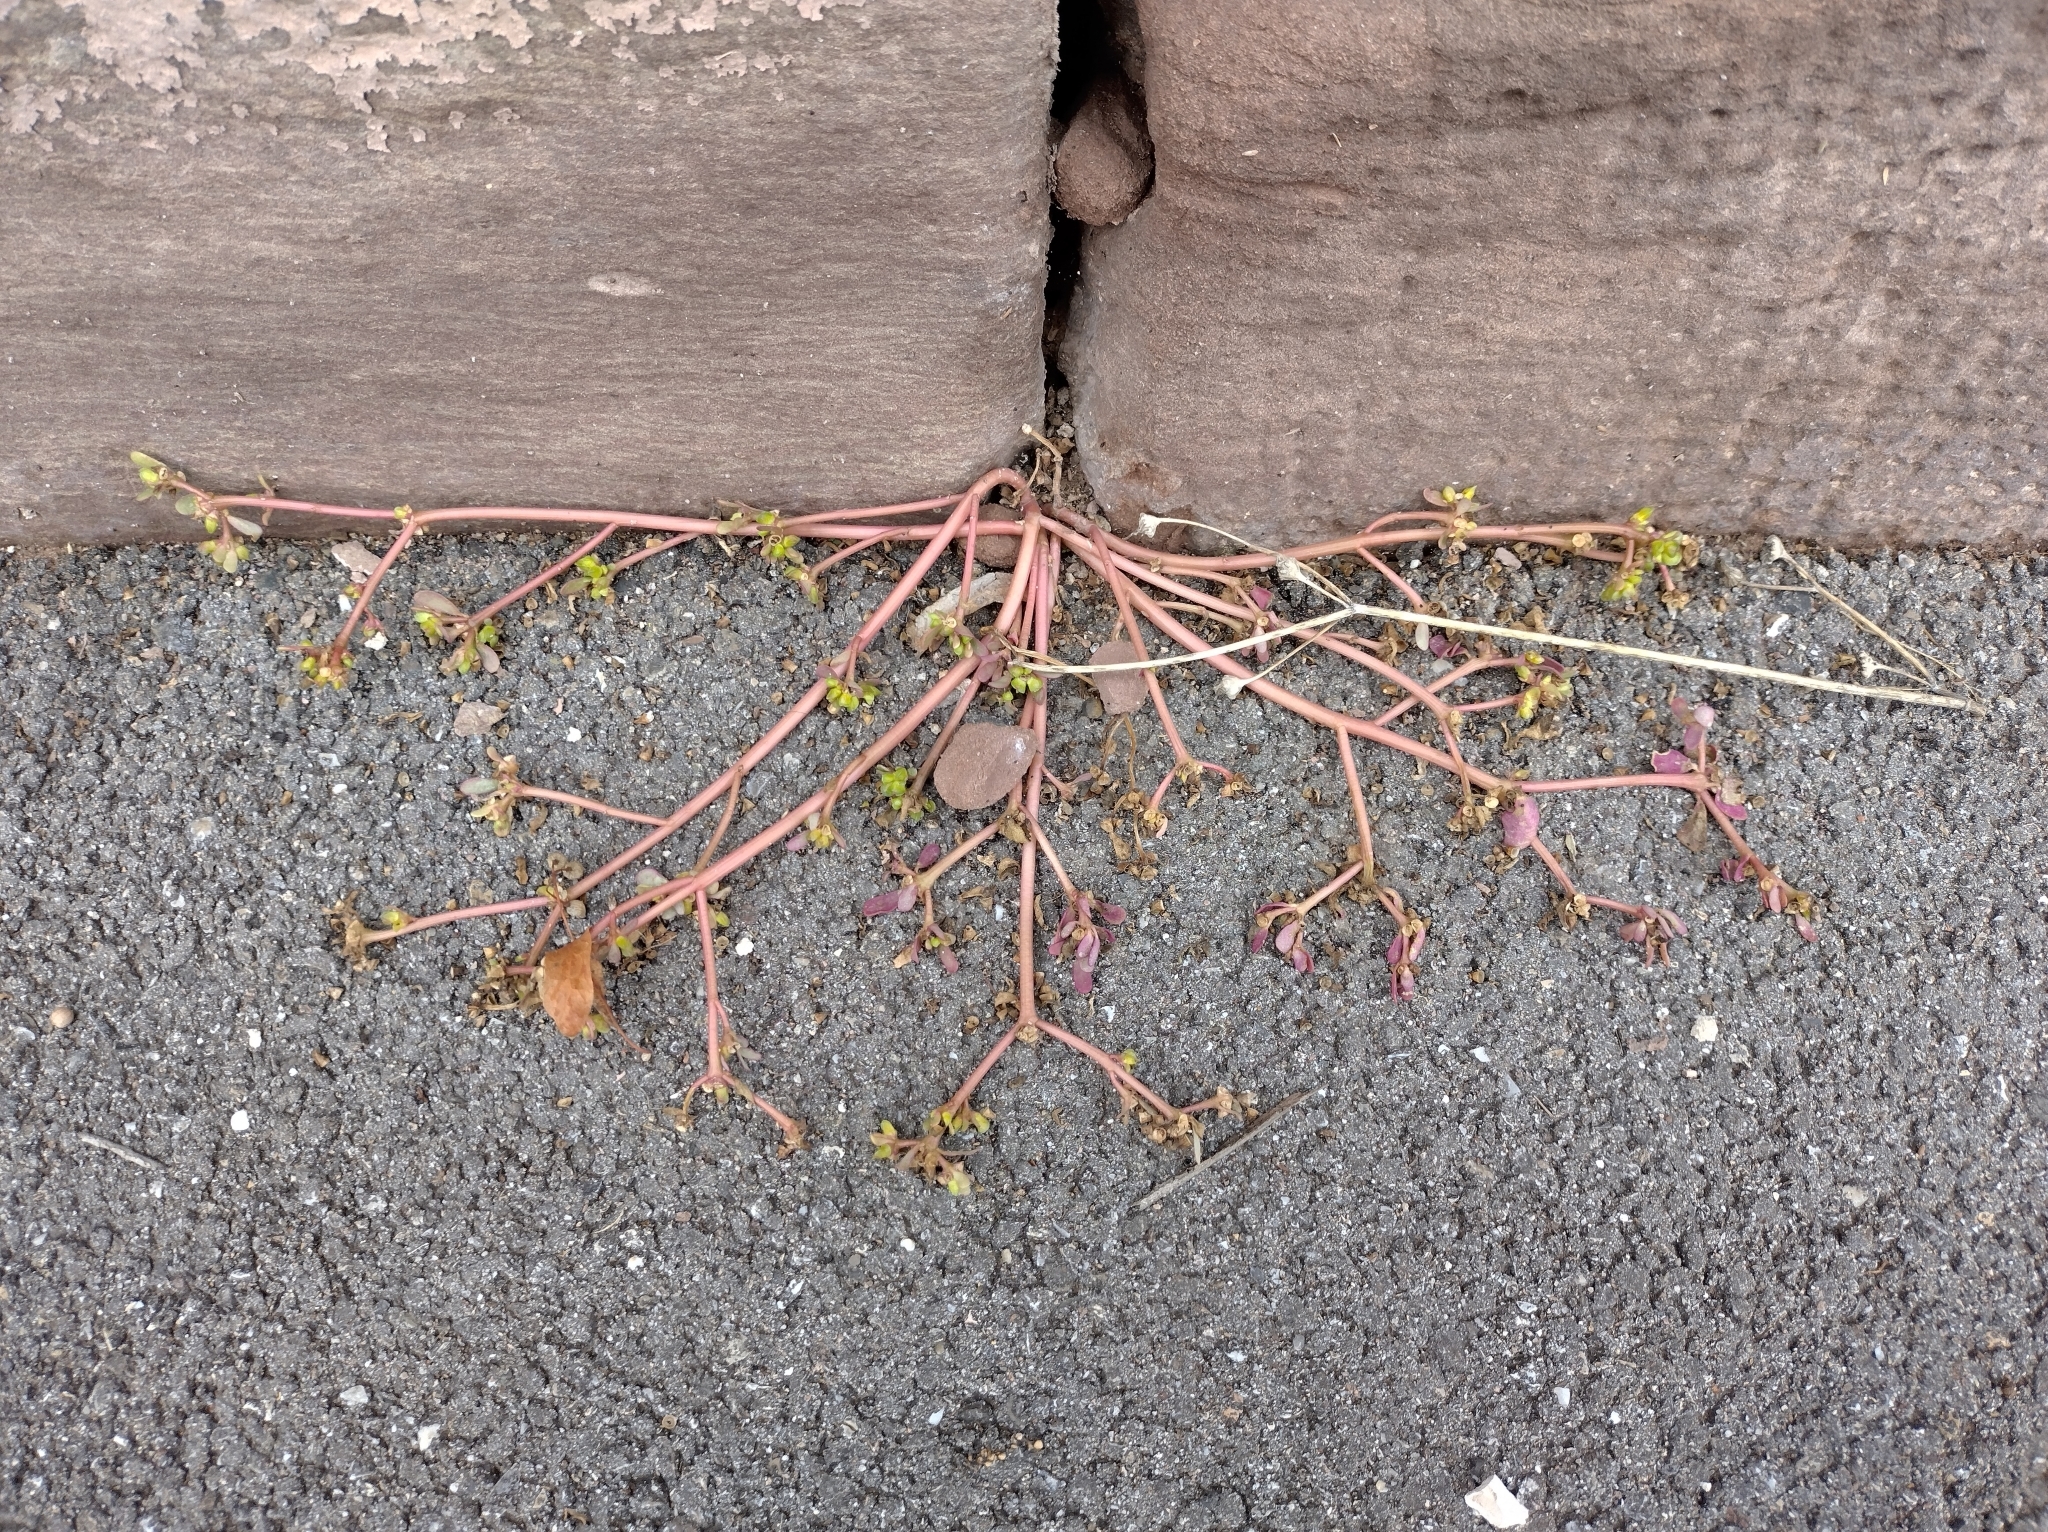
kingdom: Plantae
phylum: Tracheophyta
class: Magnoliopsida
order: Caryophyllales
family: Portulacaceae
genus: Portulaca
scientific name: Portulaca oleracea
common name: Common purslane
